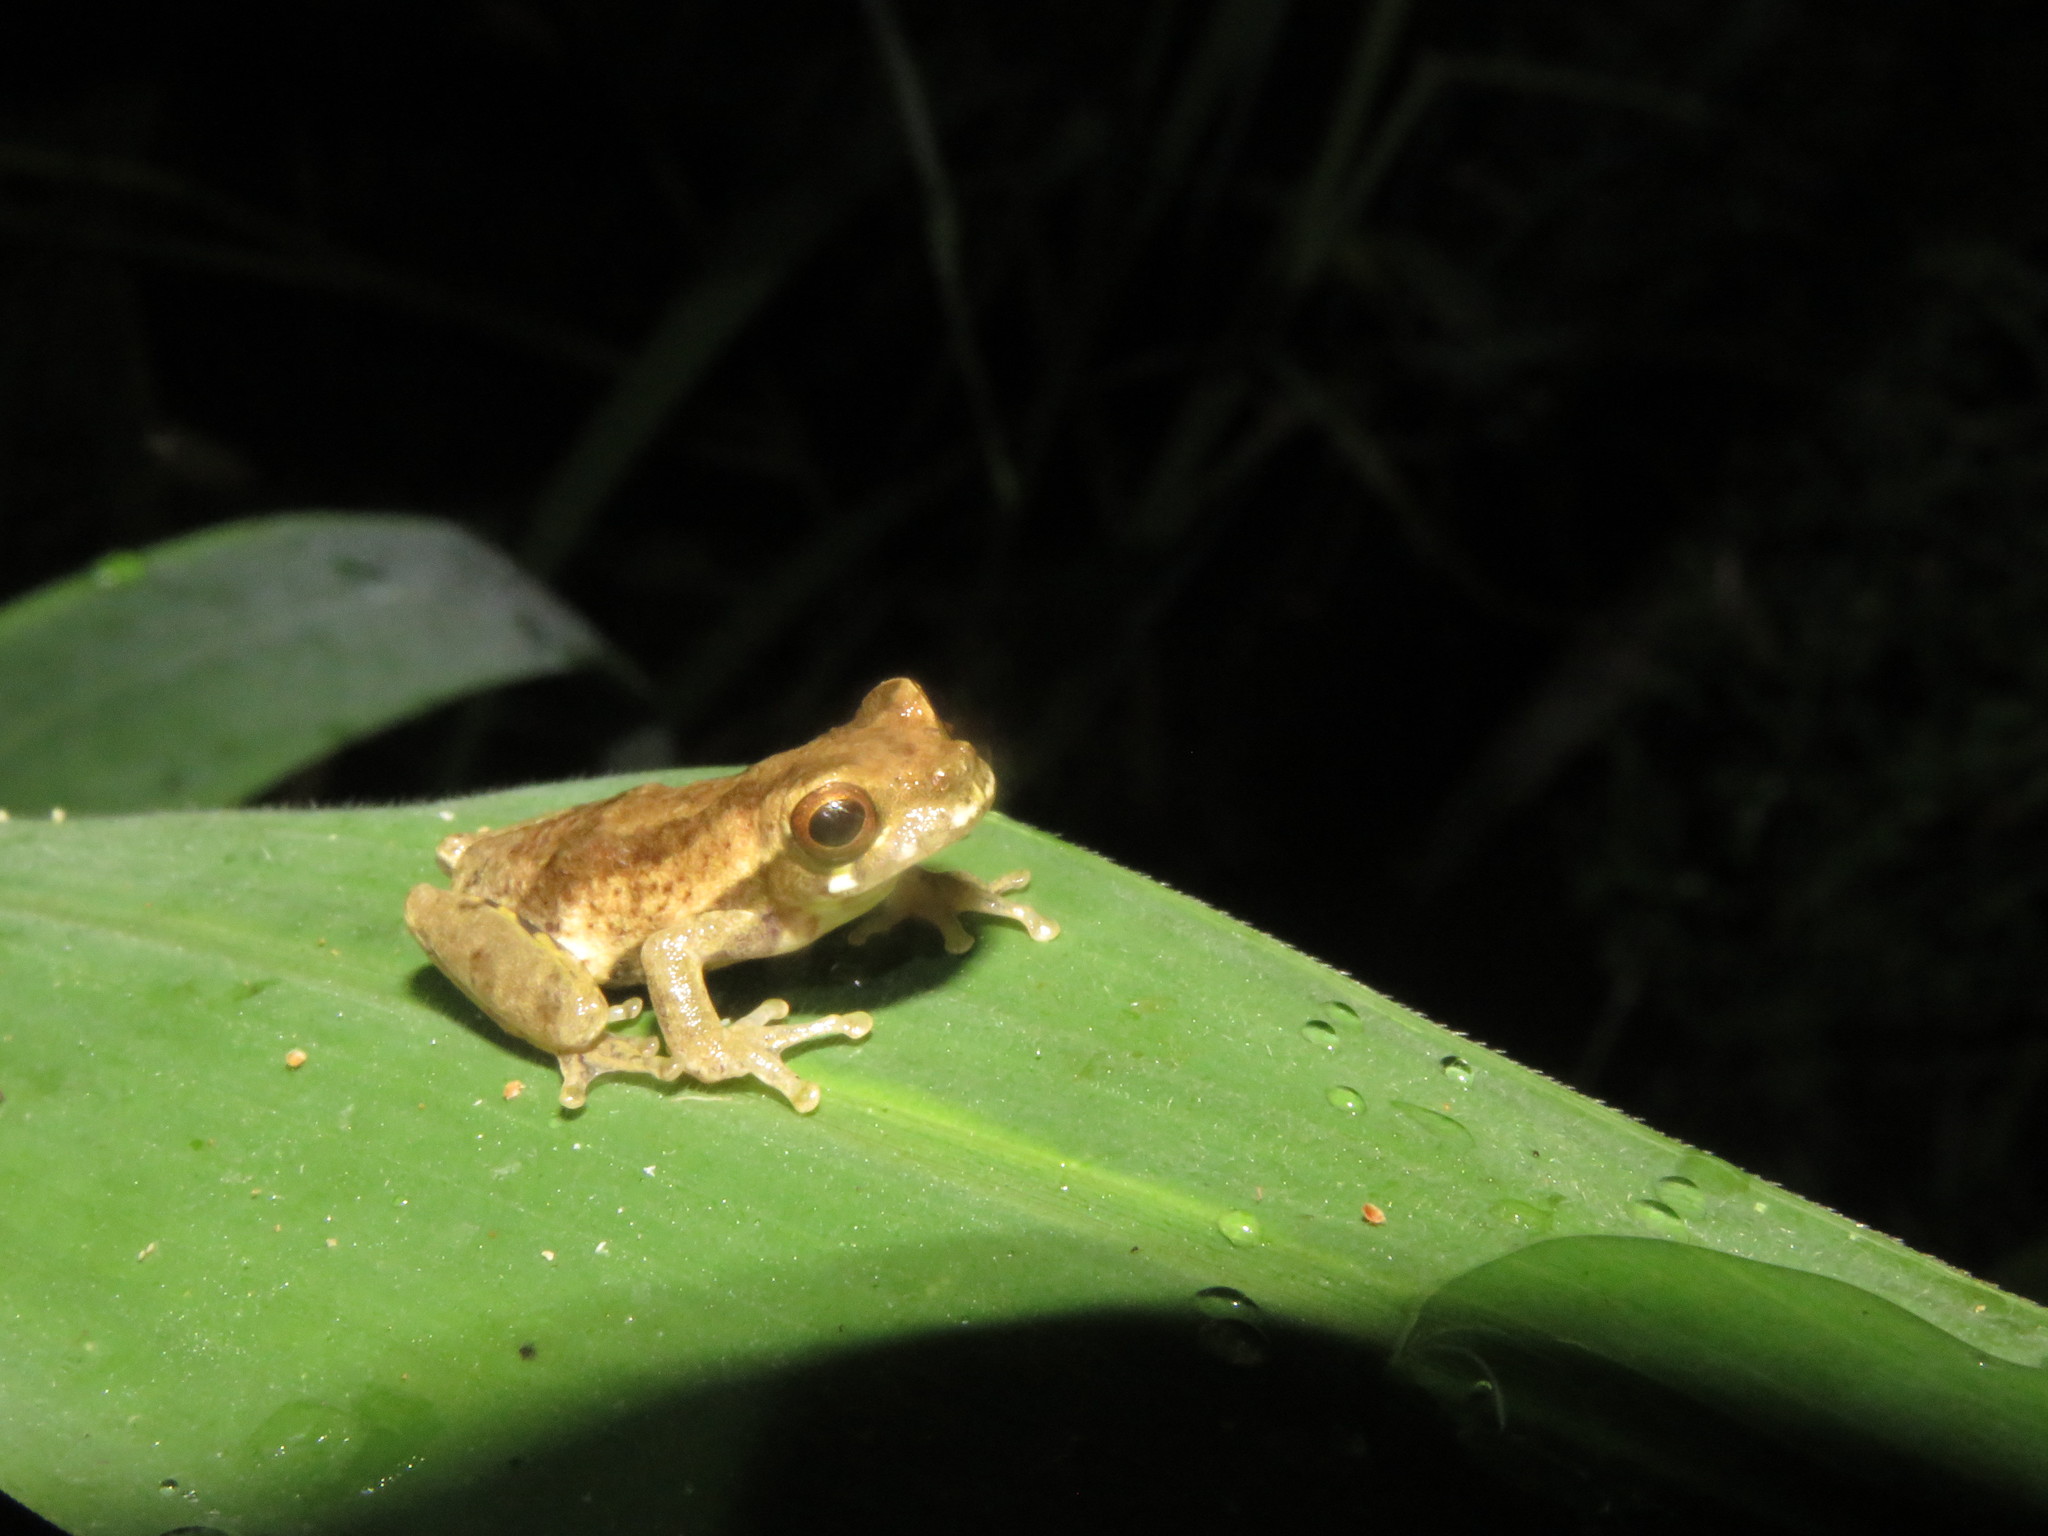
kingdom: Animalia
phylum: Chordata
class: Amphibia
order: Anura
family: Hylidae
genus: Dendropsophus
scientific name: Dendropsophus bokermanni
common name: Bokermann's tarauaca treefrog
